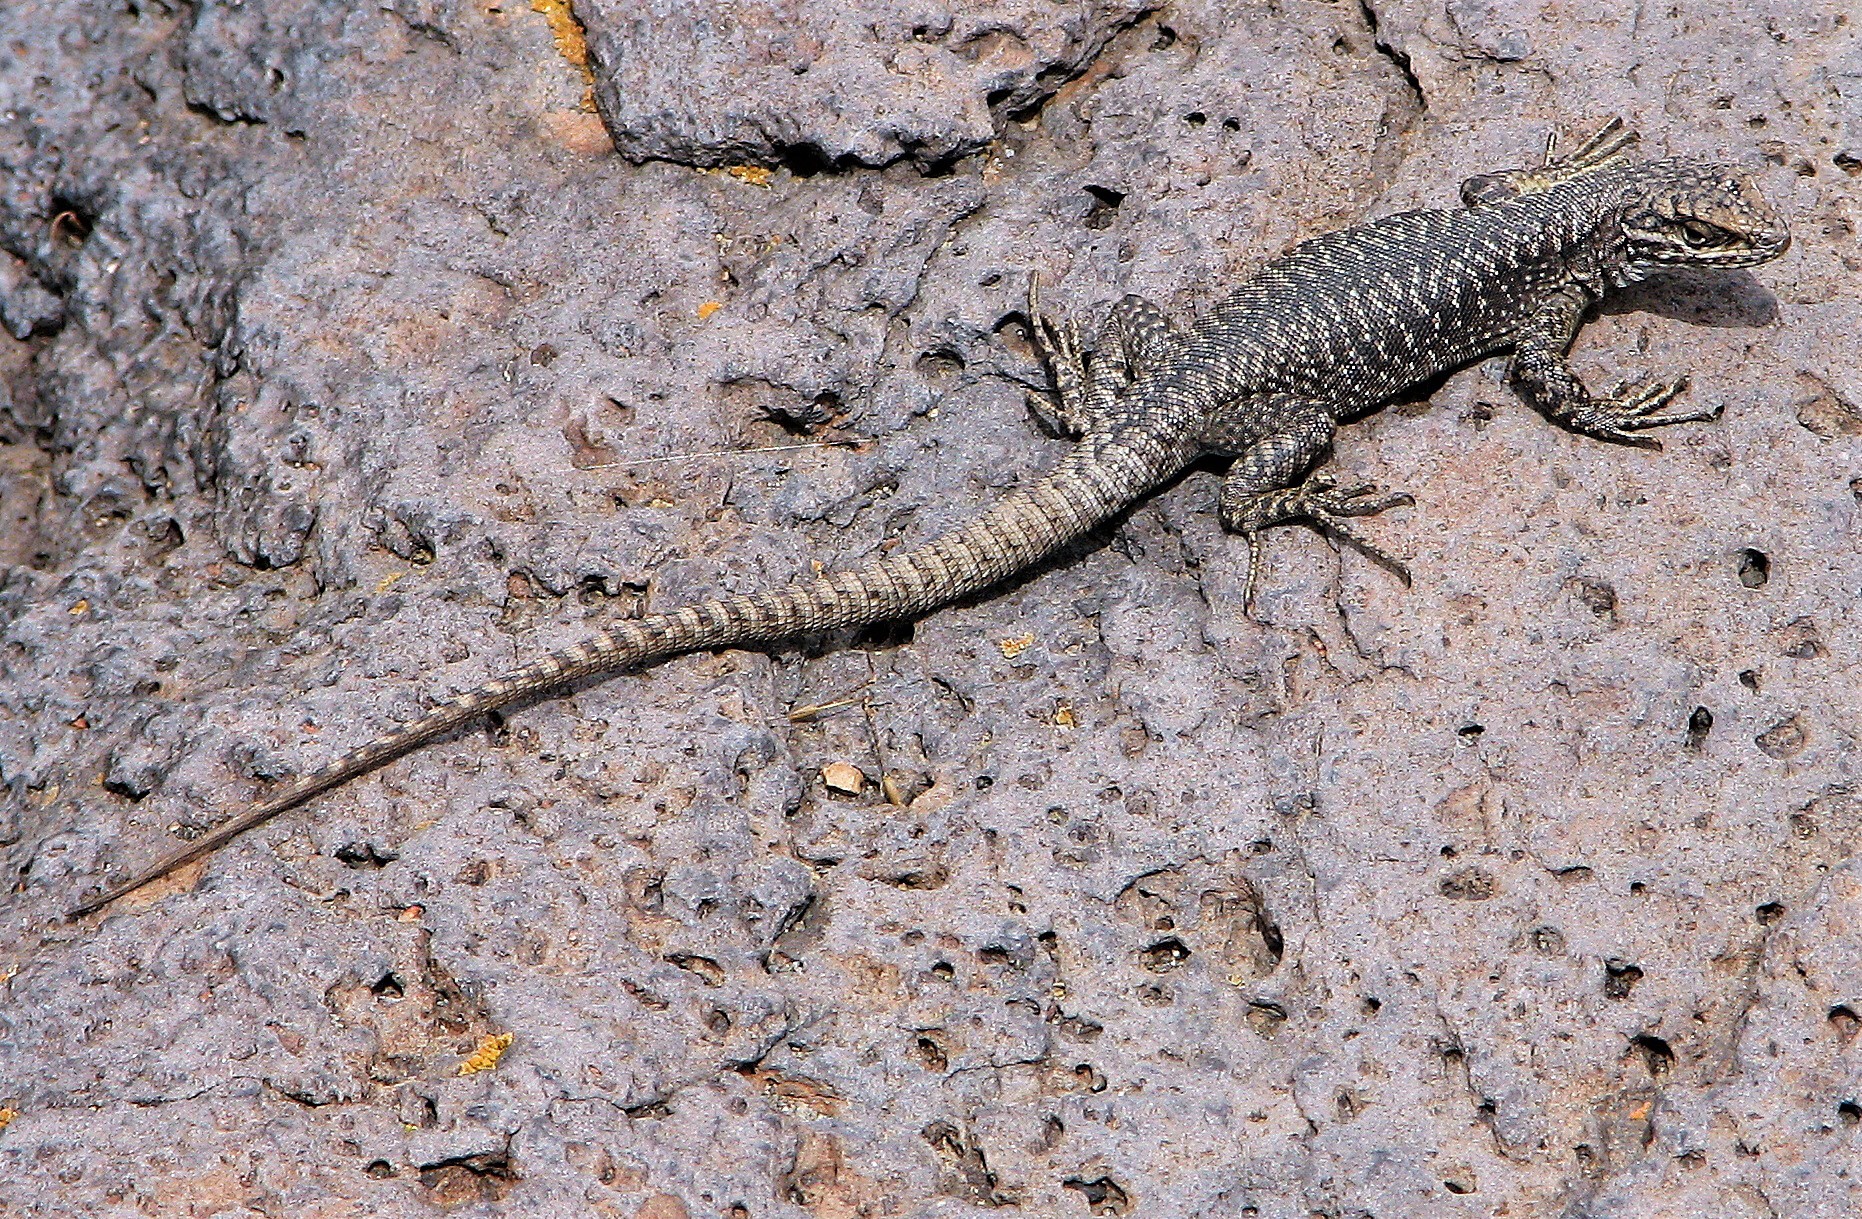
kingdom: Animalia
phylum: Chordata
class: Squamata
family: Liolaemidae
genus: Liolaemus
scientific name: Liolaemus elongatus
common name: Elongate tree iguana
